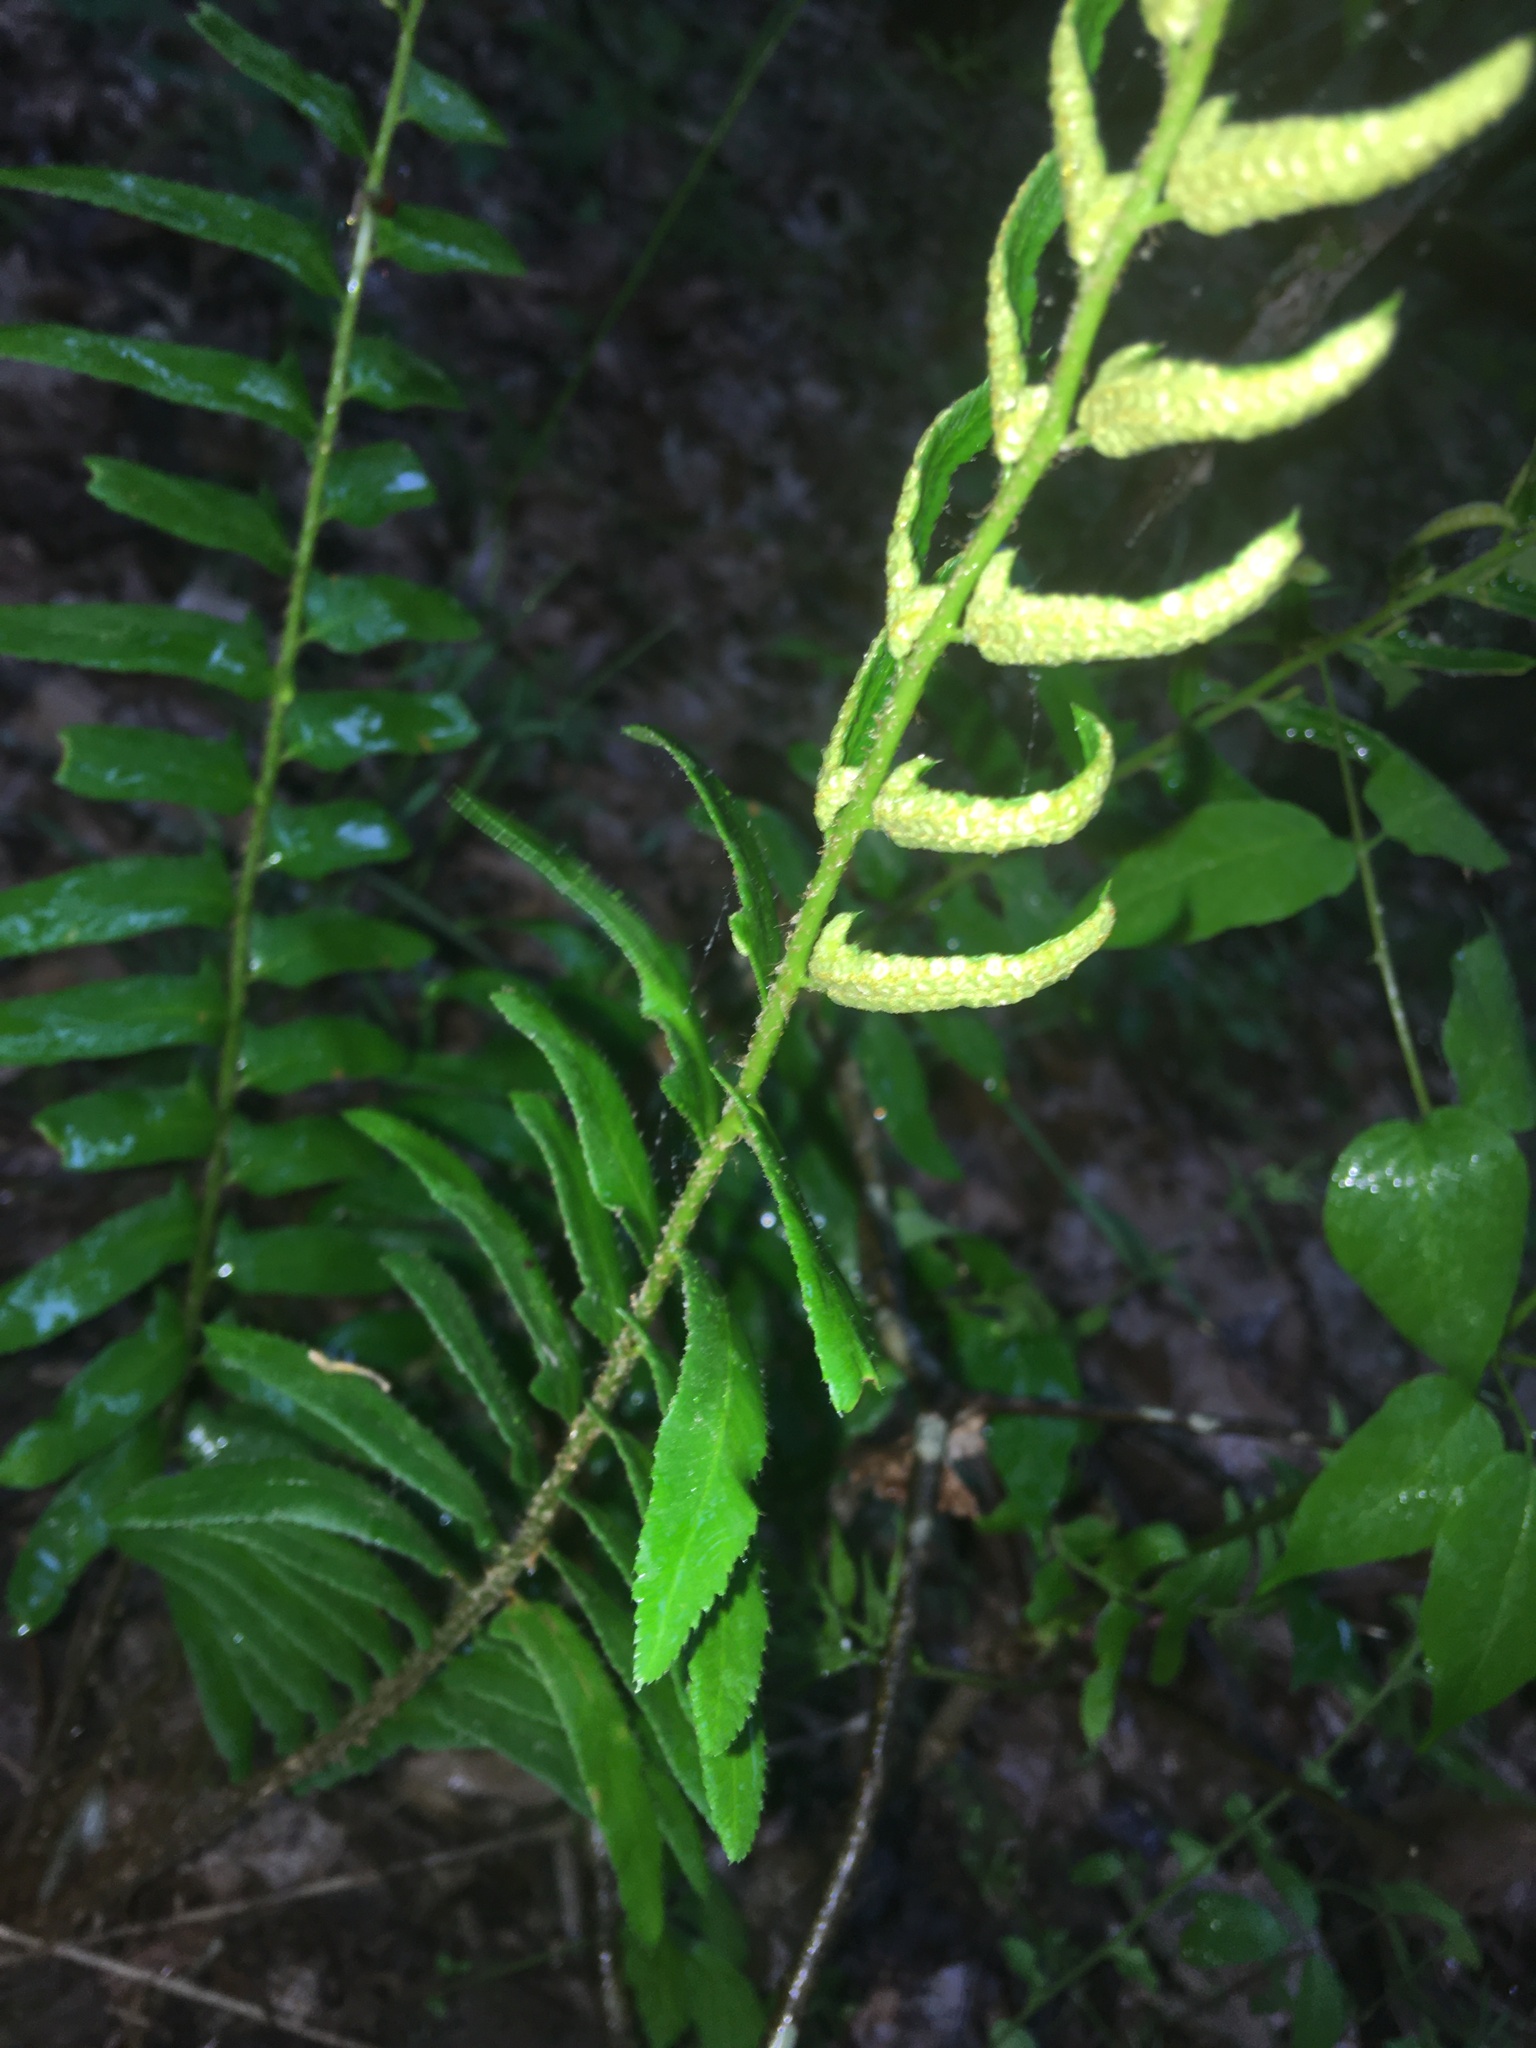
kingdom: Plantae
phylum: Tracheophyta
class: Polypodiopsida
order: Polypodiales
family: Dryopteridaceae
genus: Polystichum
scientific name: Polystichum acrostichoides
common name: Christmas fern
